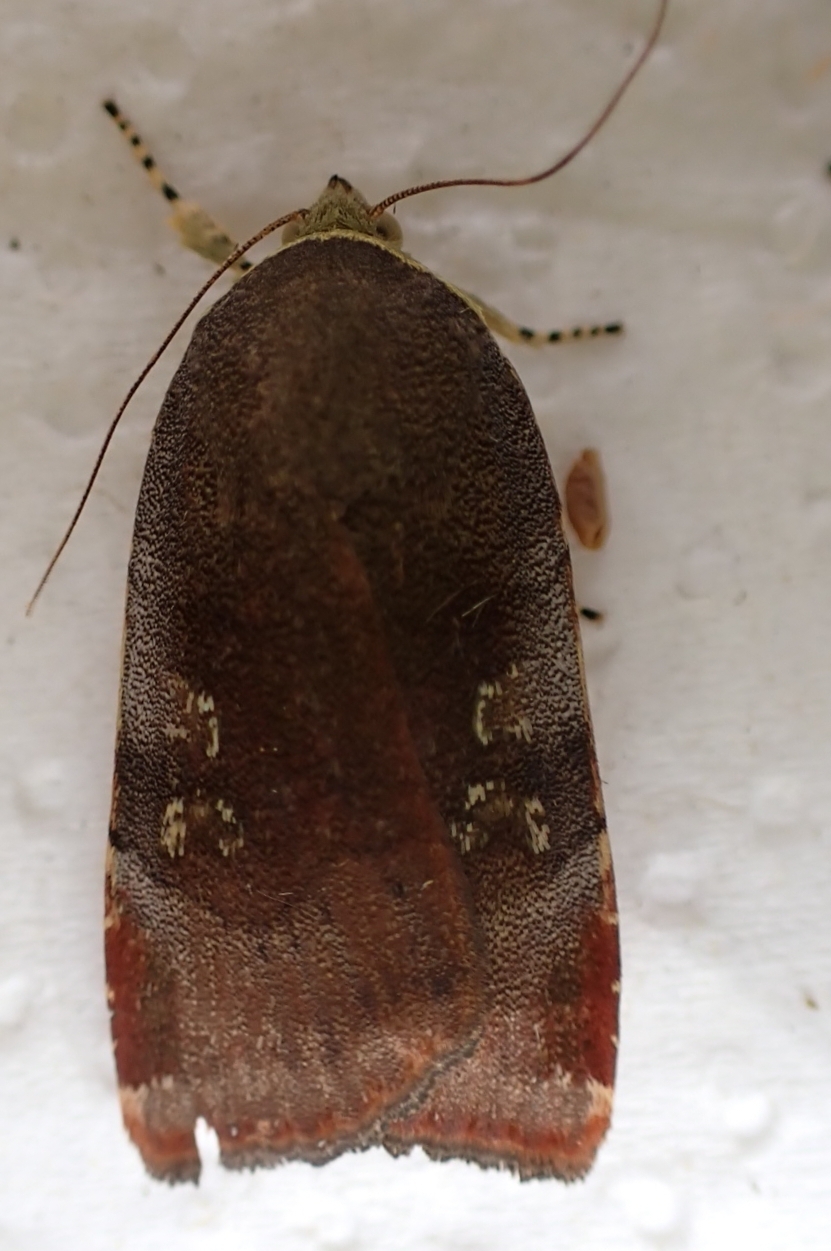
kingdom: Animalia
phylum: Arthropoda
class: Insecta
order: Lepidoptera
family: Noctuidae
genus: Noctua
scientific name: Noctua janthe
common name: Lesser broad-bordered yellow underwing
